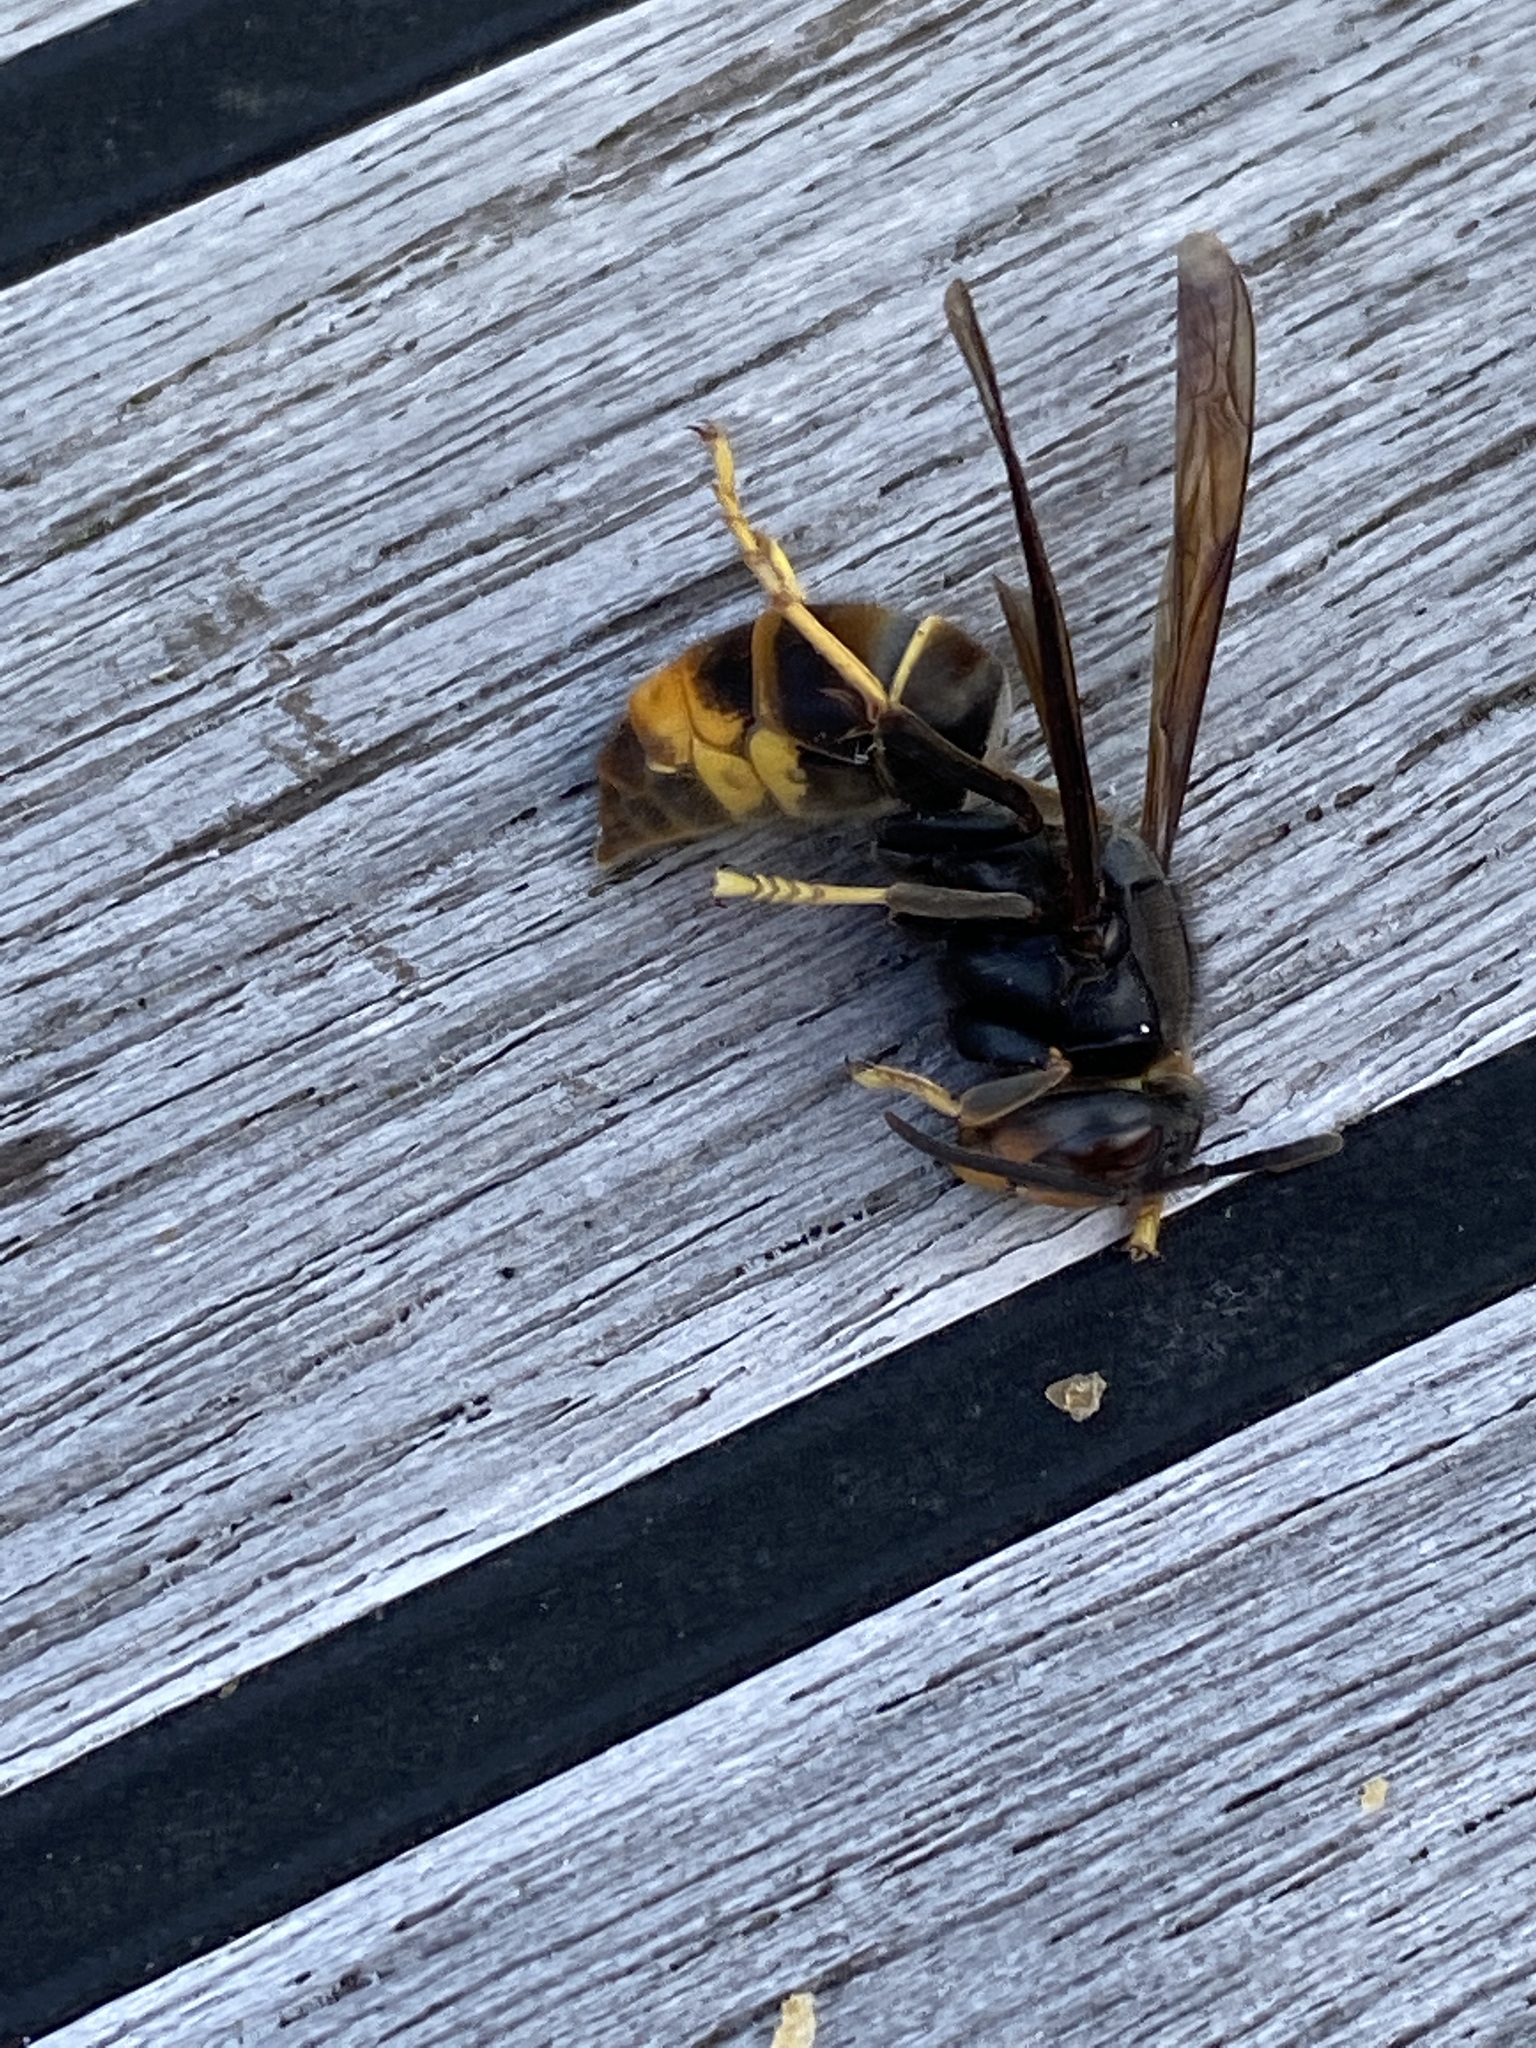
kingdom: Animalia
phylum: Arthropoda
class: Insecta
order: Hymenoptera
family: Vespidae
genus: Vespa
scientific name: Vespa velutina
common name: Asian hornet
